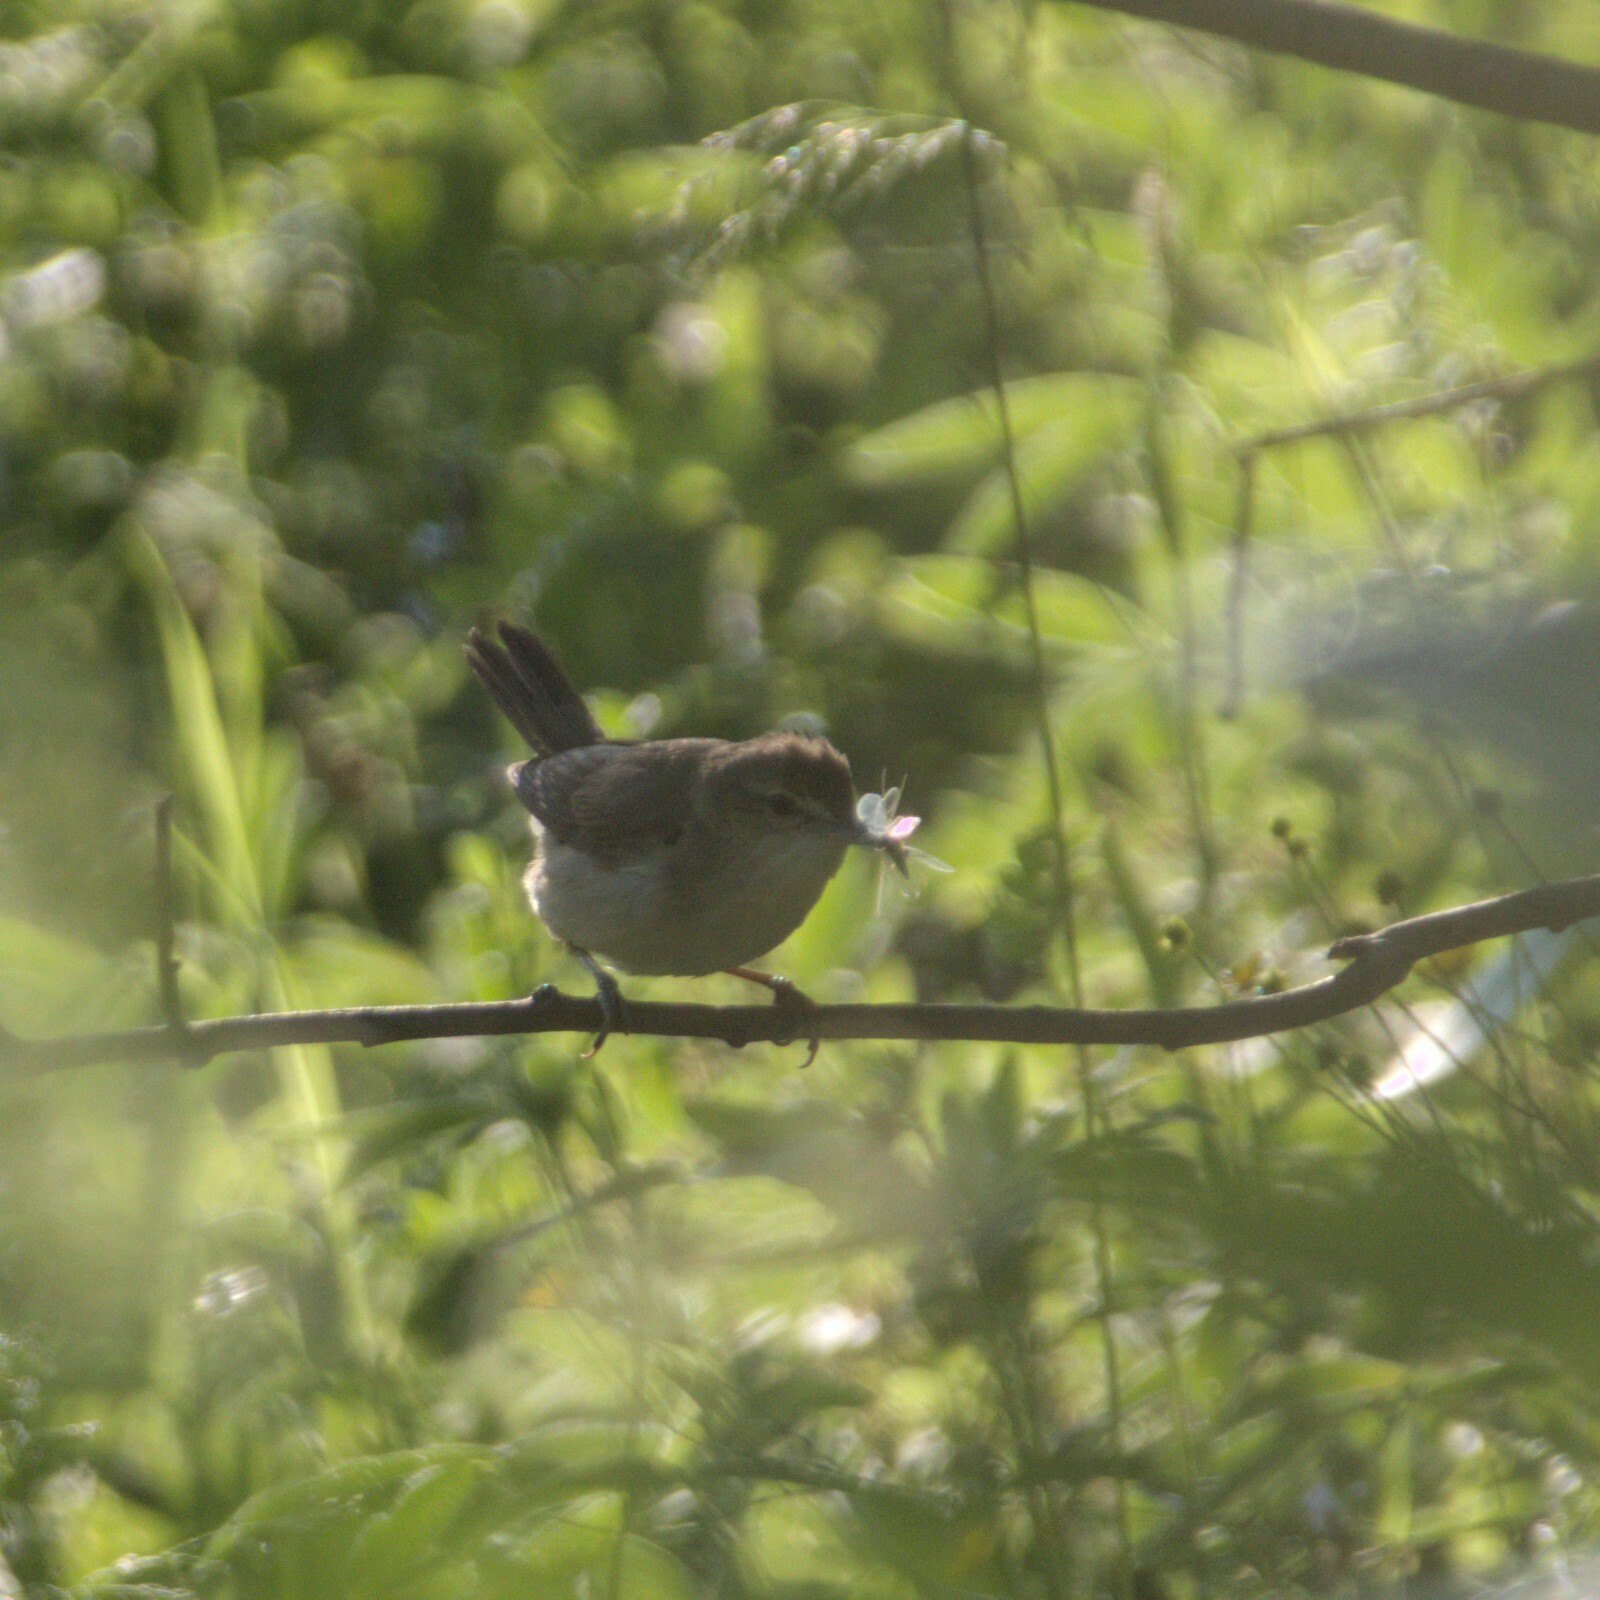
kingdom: Animalia
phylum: Chordata
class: Aves
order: Passeriformes
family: Acrocephalidae
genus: Acrocephalus
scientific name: Acrocephalus dumetorum
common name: Blyth's reed warbler
